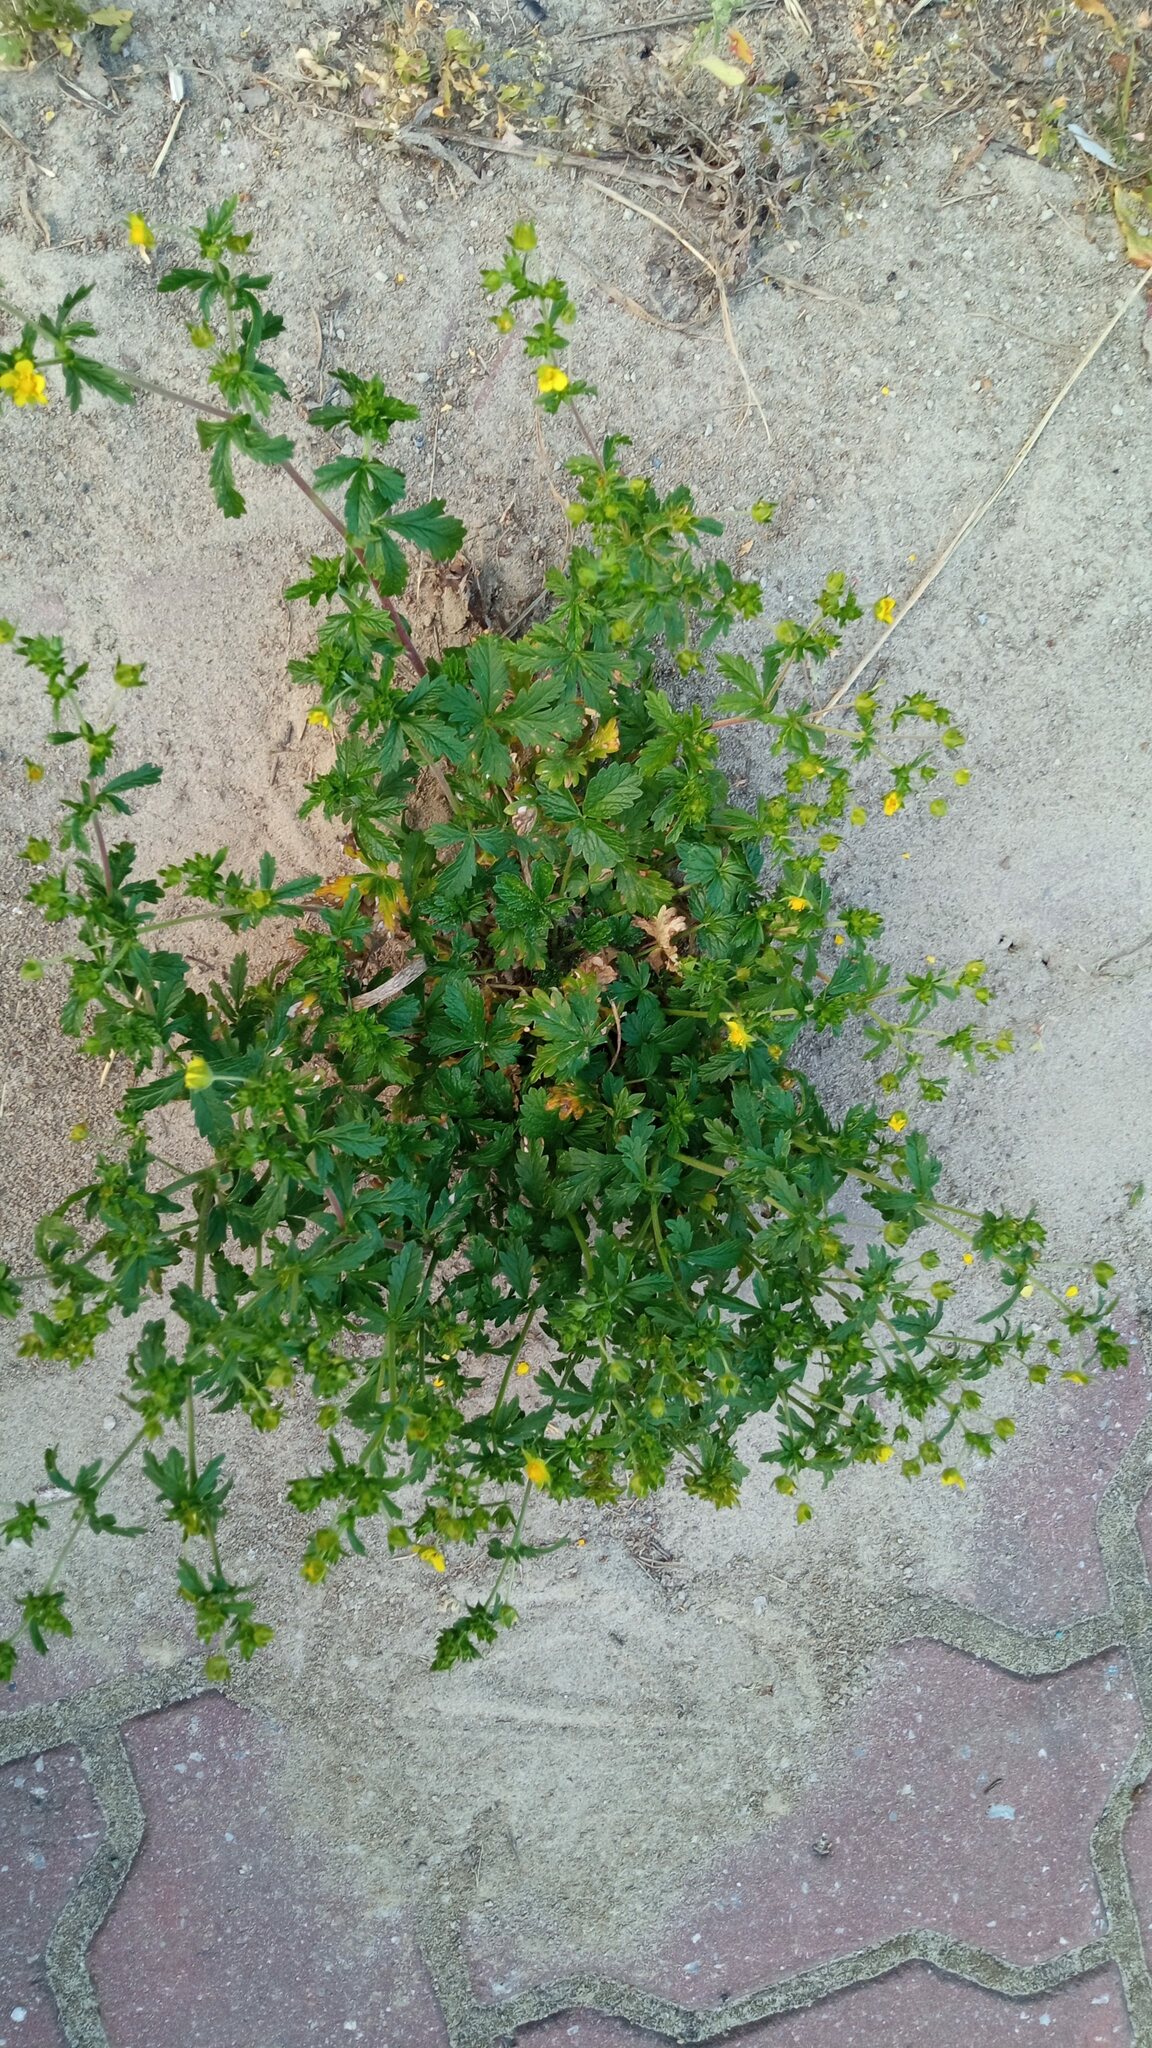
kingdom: Plantae
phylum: Tracheophyta
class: Magnoliopsida
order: Rosales
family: Rosaceae
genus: Potentilla
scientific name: Potentilla intermedia
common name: Downy cinquefoil
